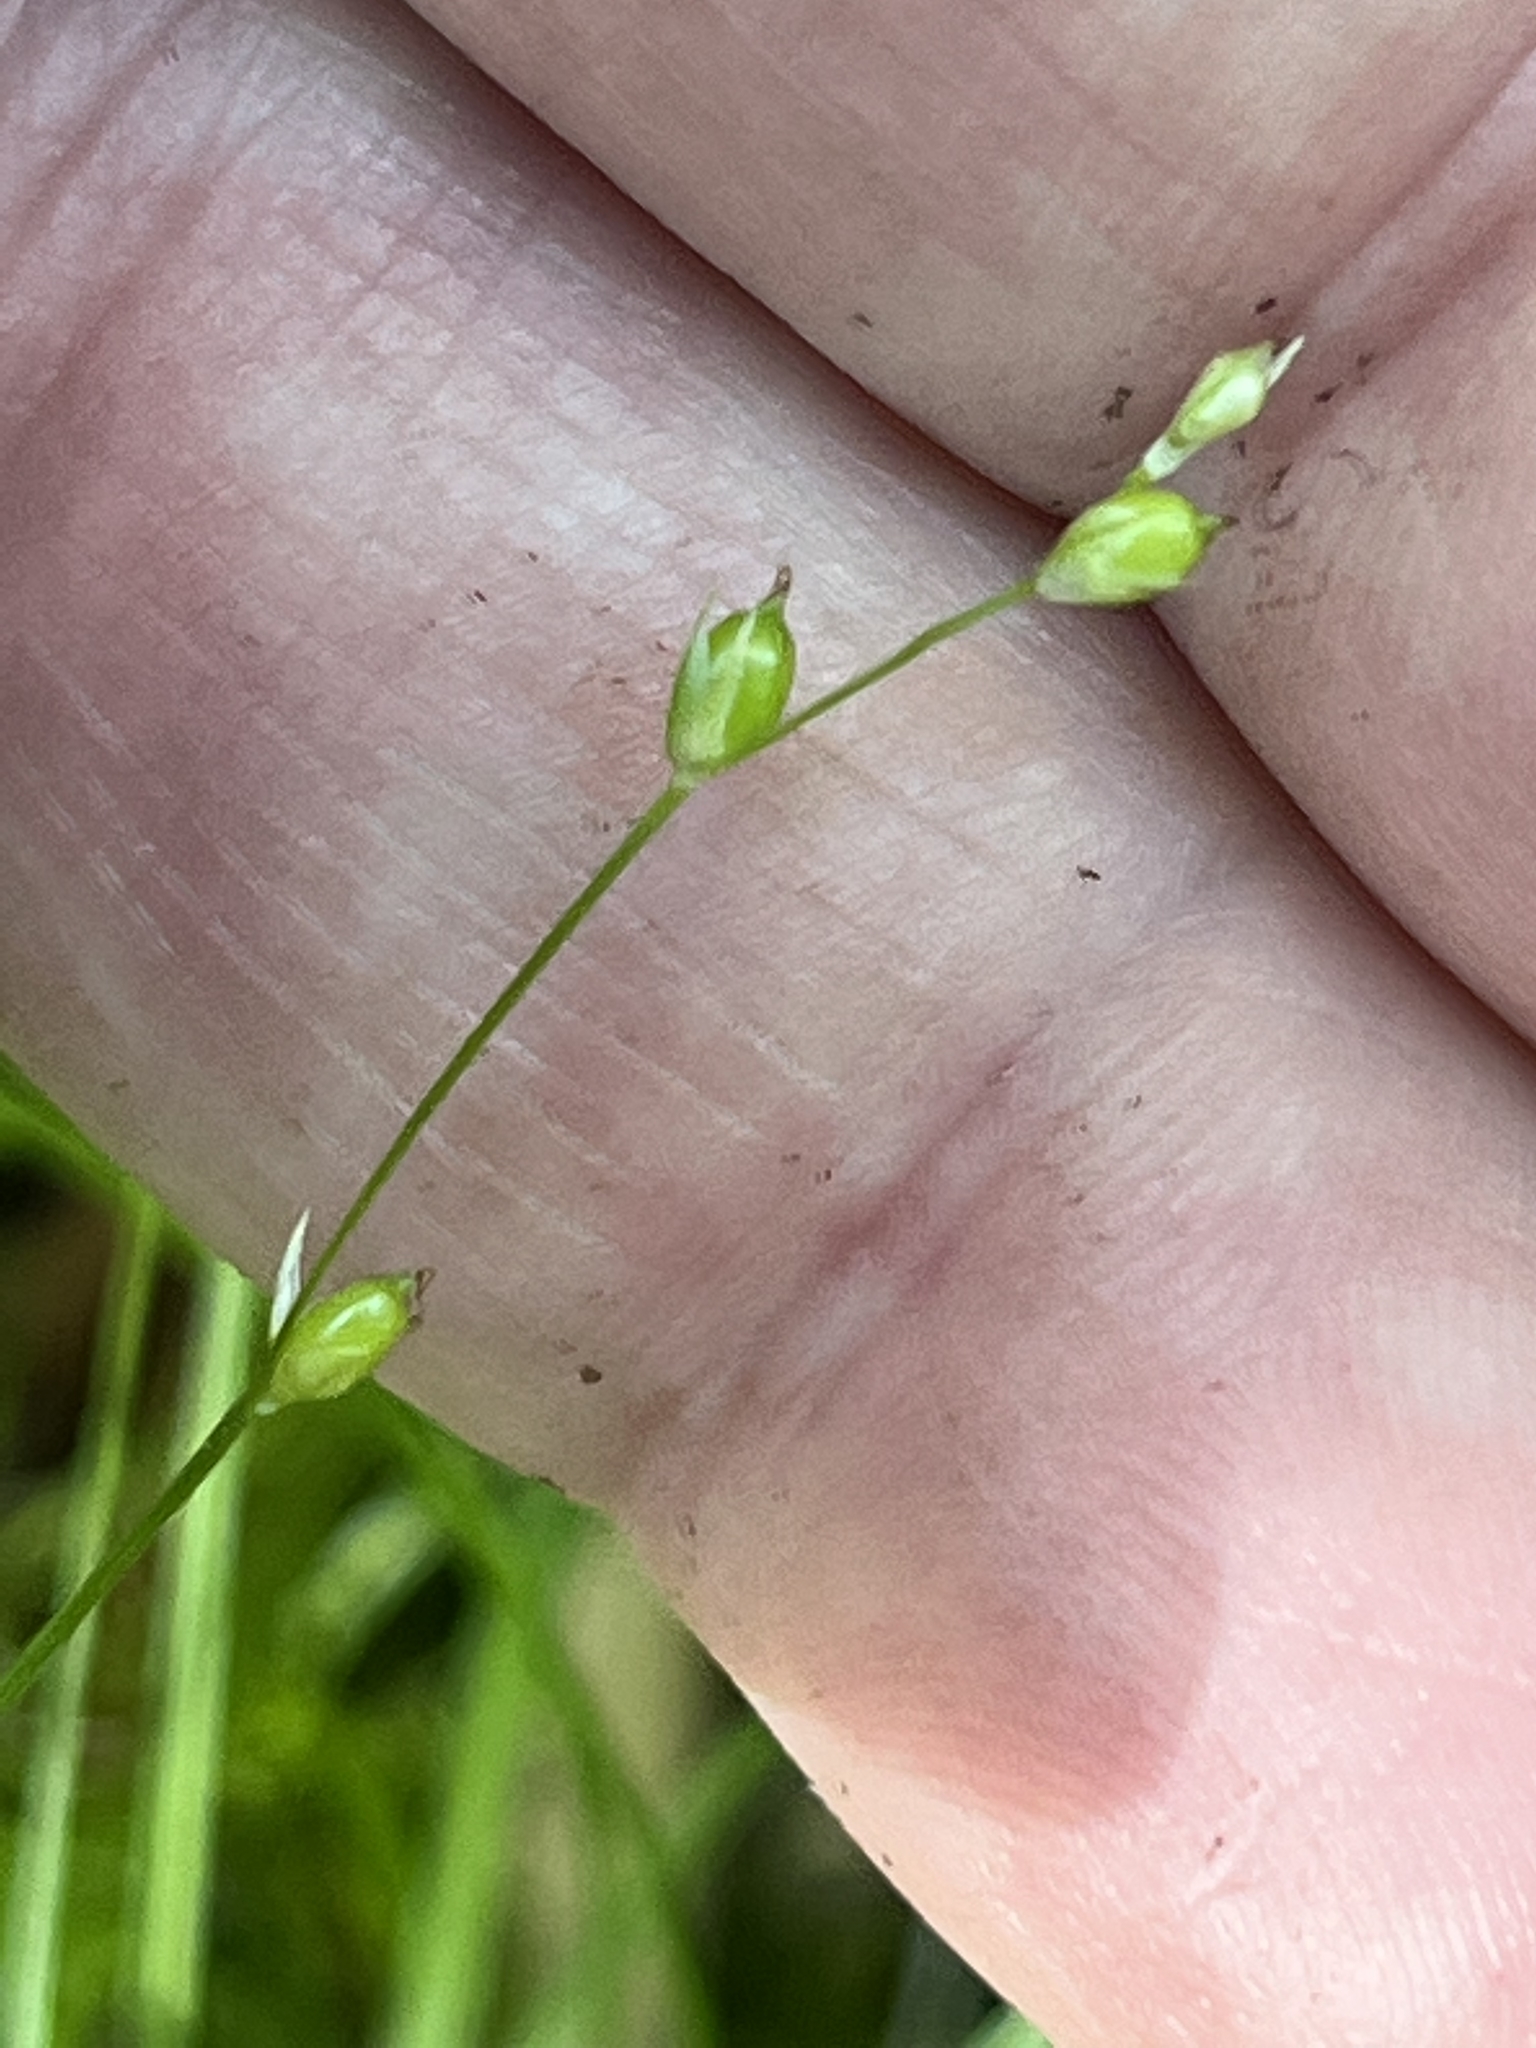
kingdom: Plantae
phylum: Tracheophyta
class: Liliopsida
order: Poales
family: Cyperaceae
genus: Carex
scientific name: Carex disperma
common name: Short-leaved sedge
